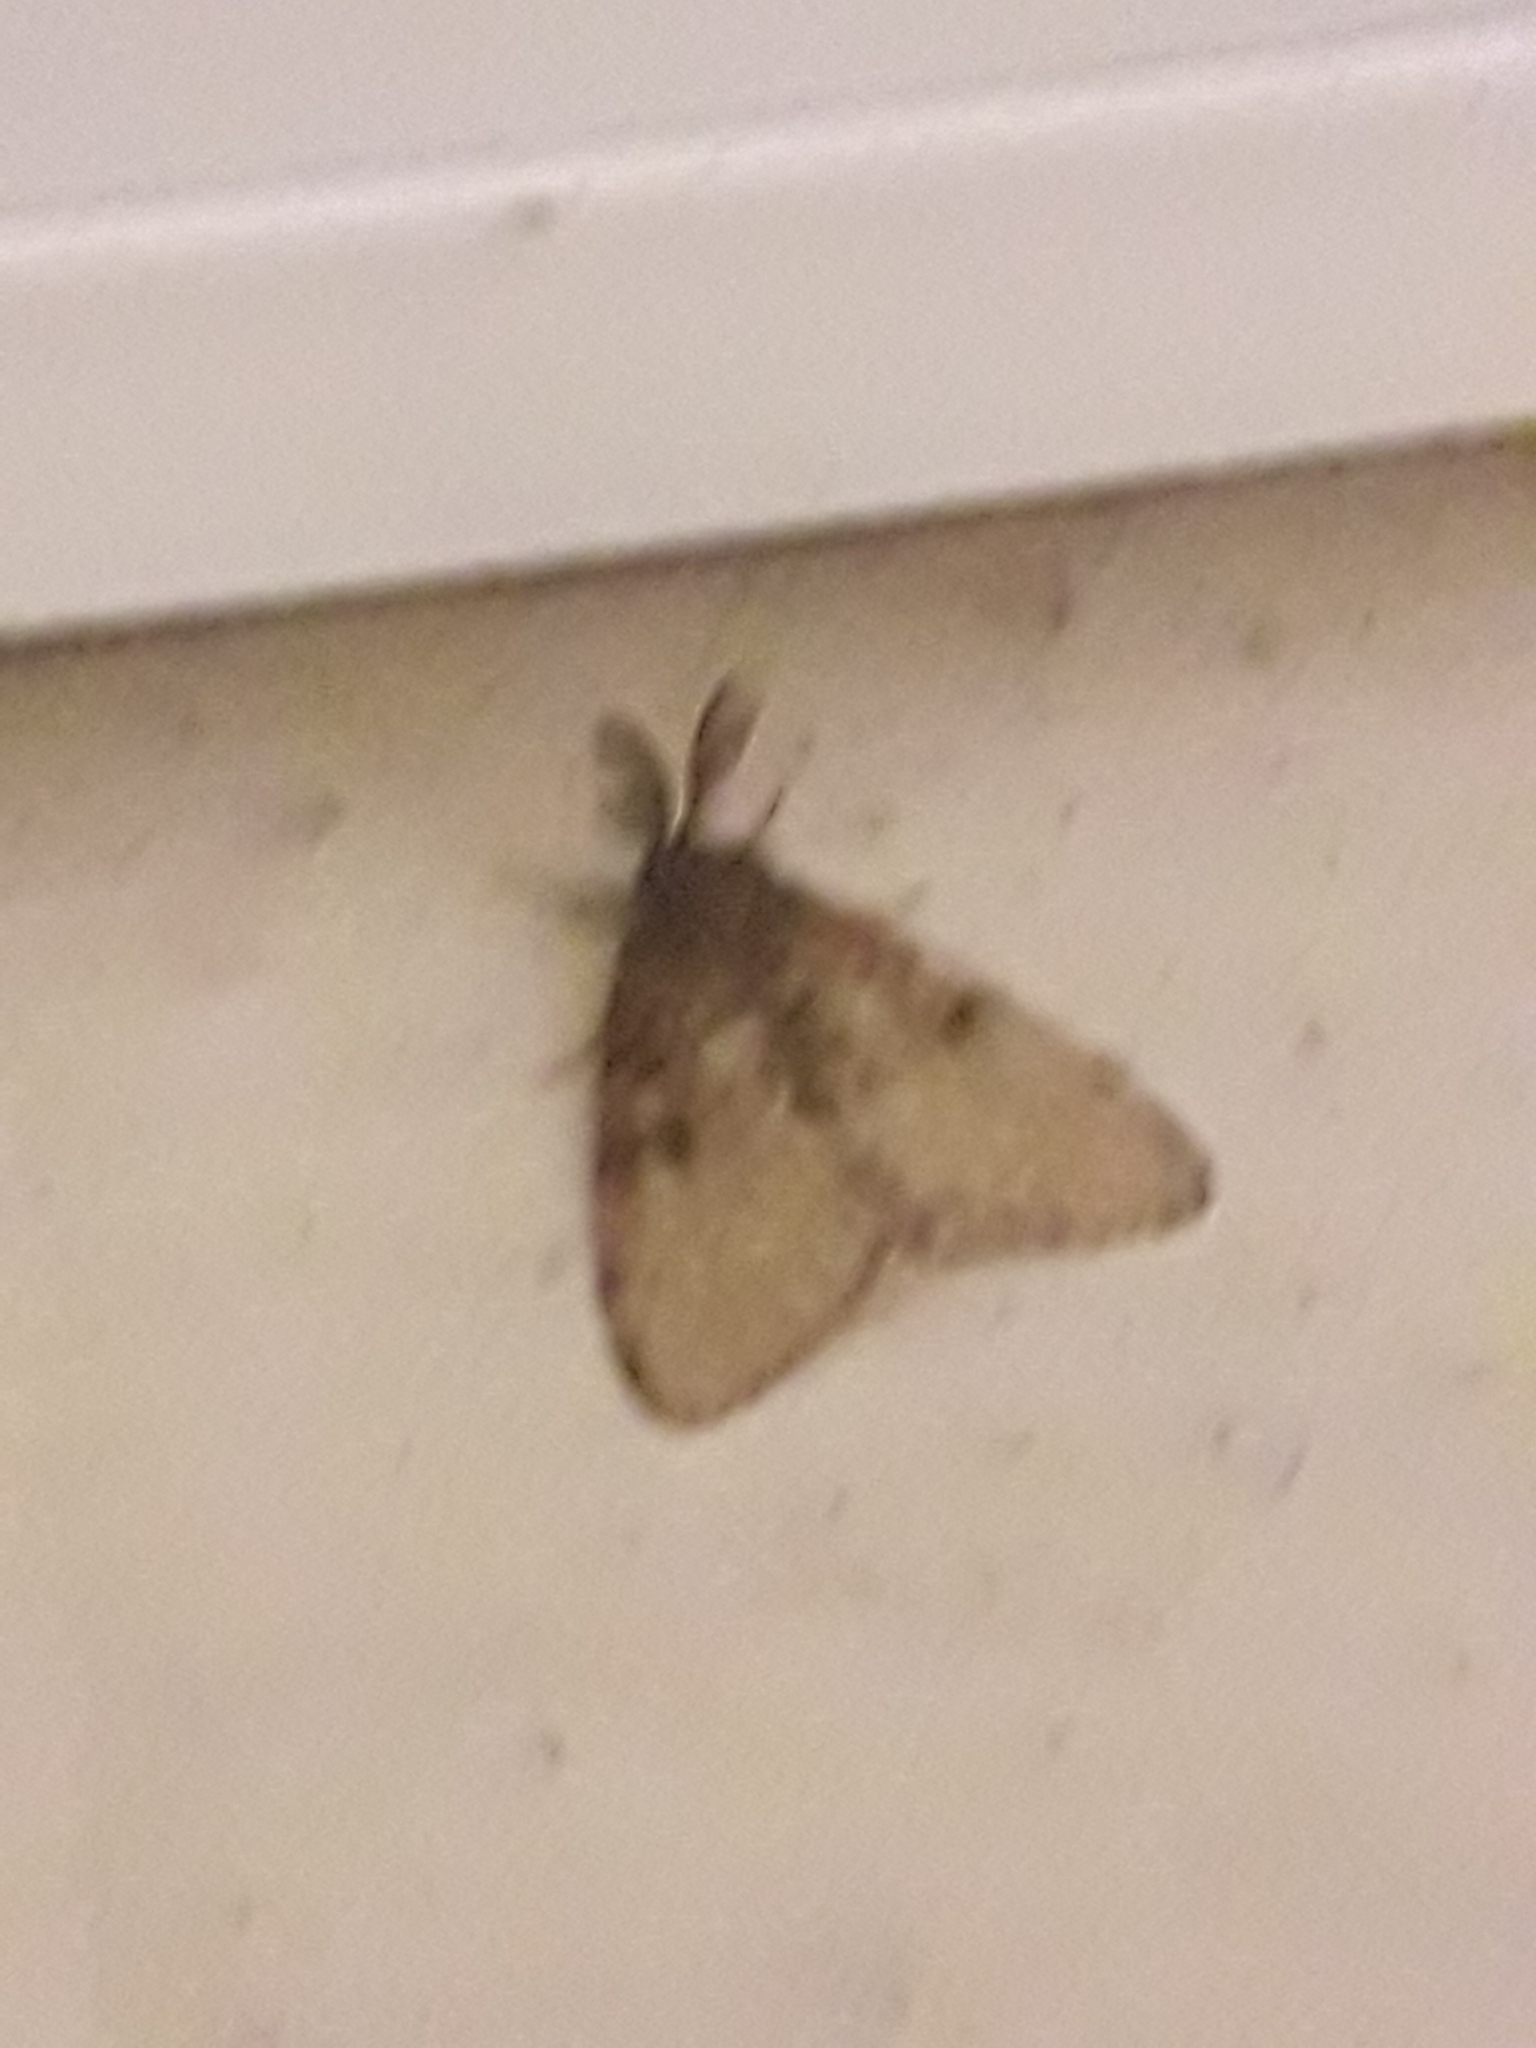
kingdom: Animalia
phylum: Arthropoda
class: Insecta
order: Lepidoptera
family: Erebidae
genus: Lymantria
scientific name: Lymantria dispar
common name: Gypsy moth
